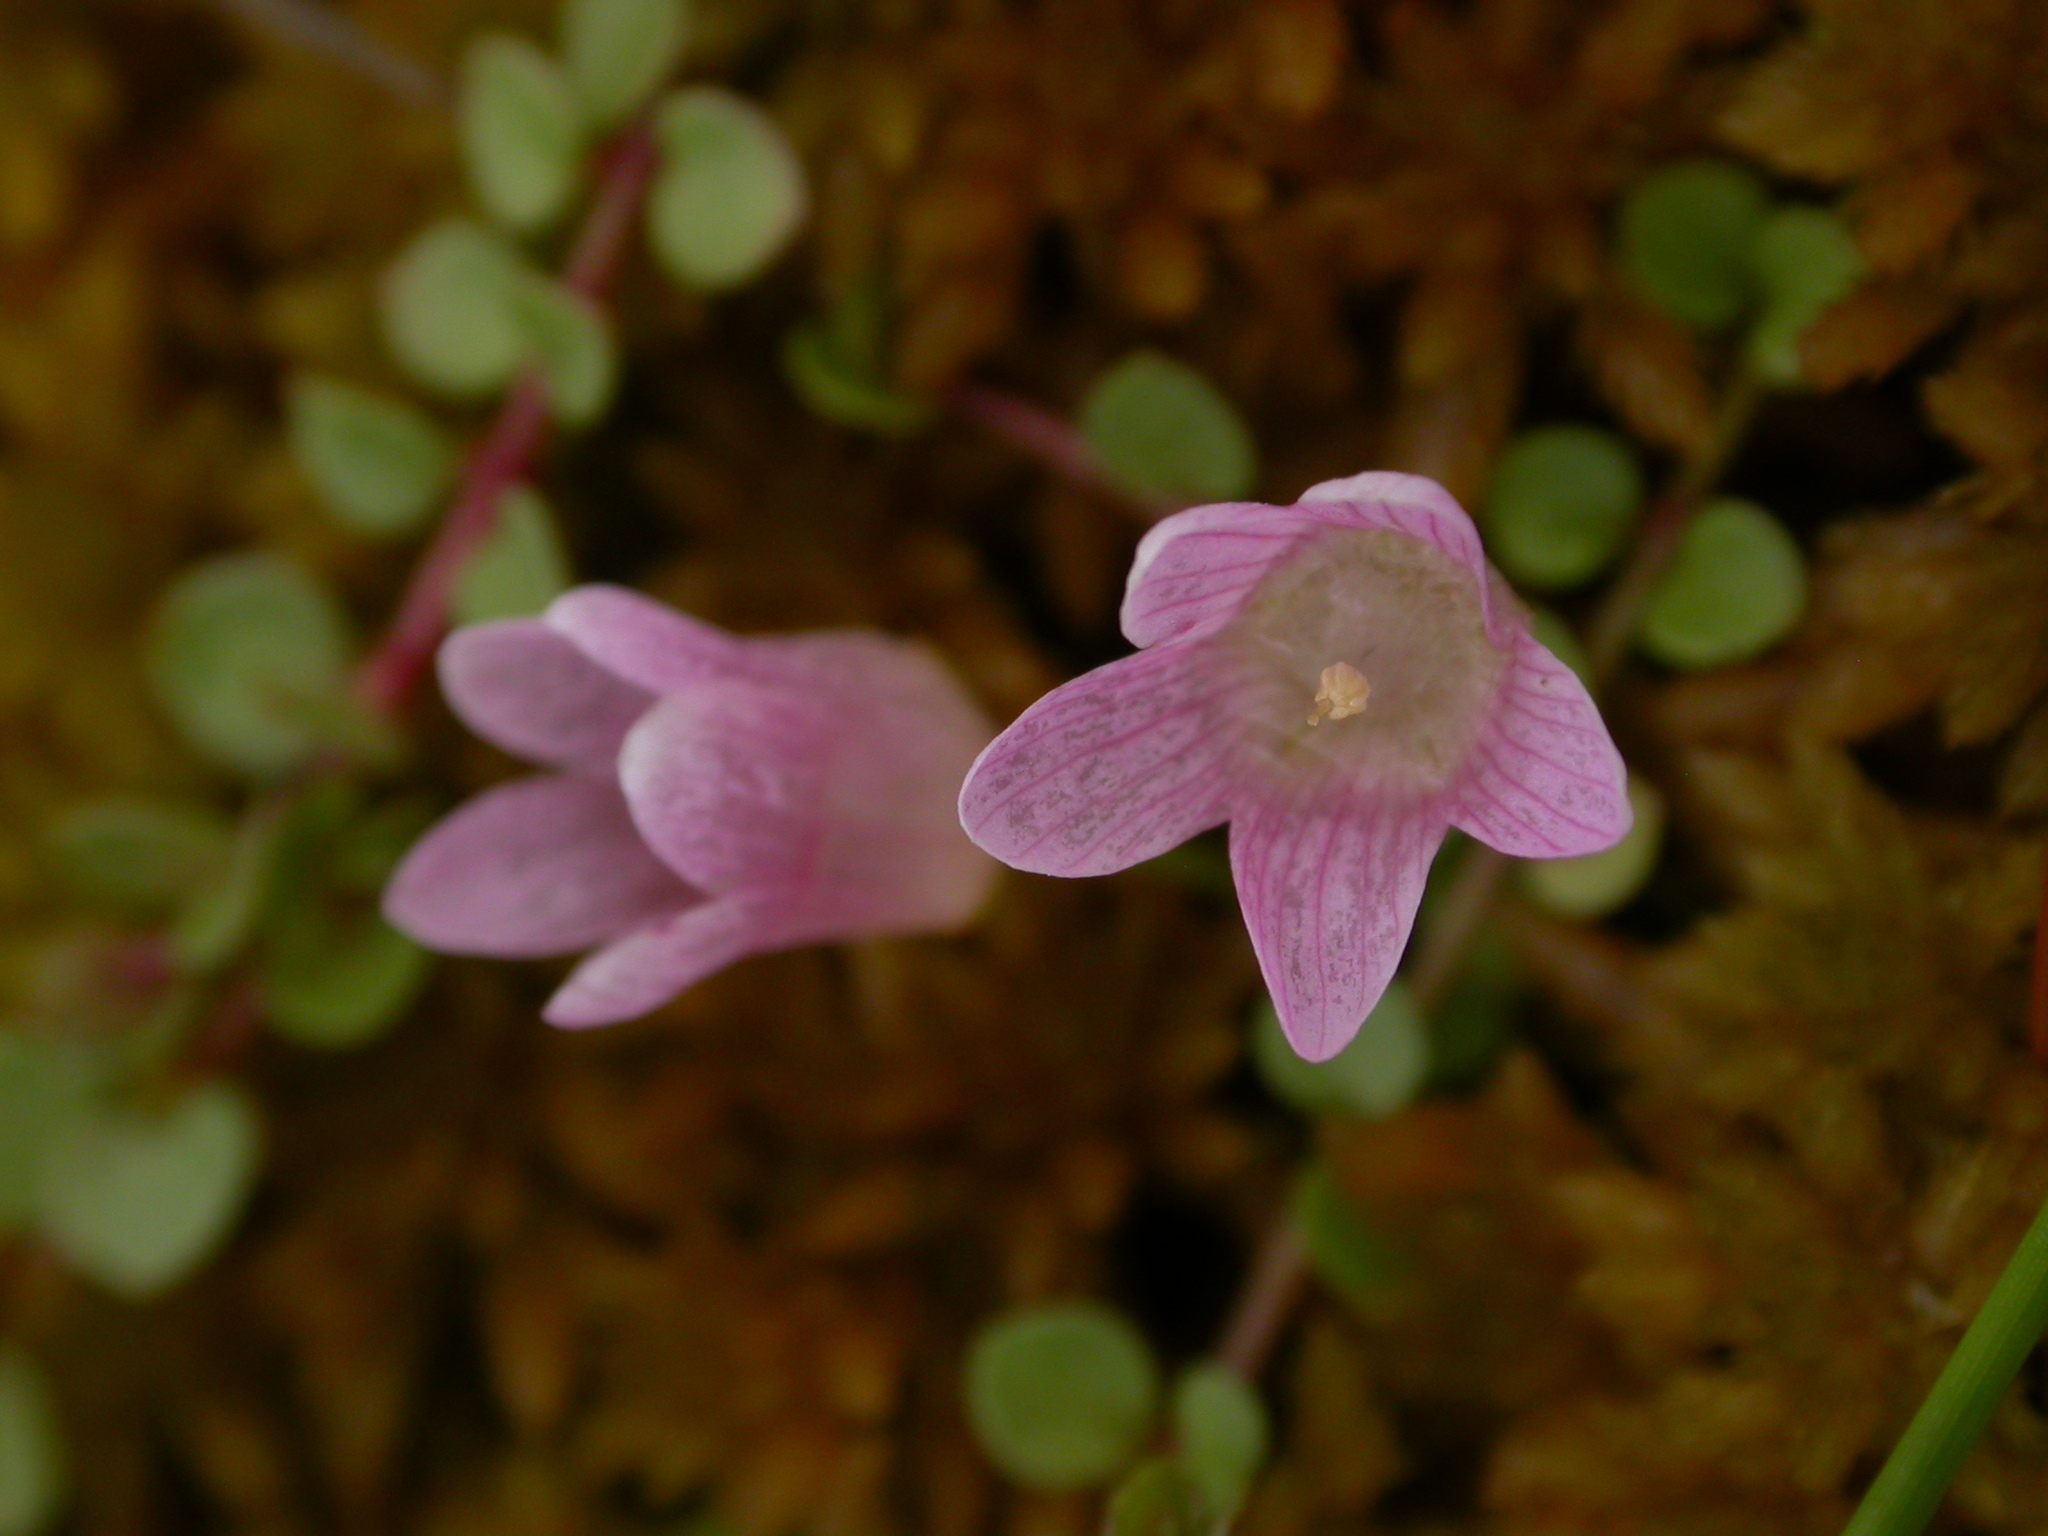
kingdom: Plantae
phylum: Tracheophyta
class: Magnoliopsida
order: Ericales
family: Primulaceae
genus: Lysimachia
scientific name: Lysimachia tenella
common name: European bog pimpernel
